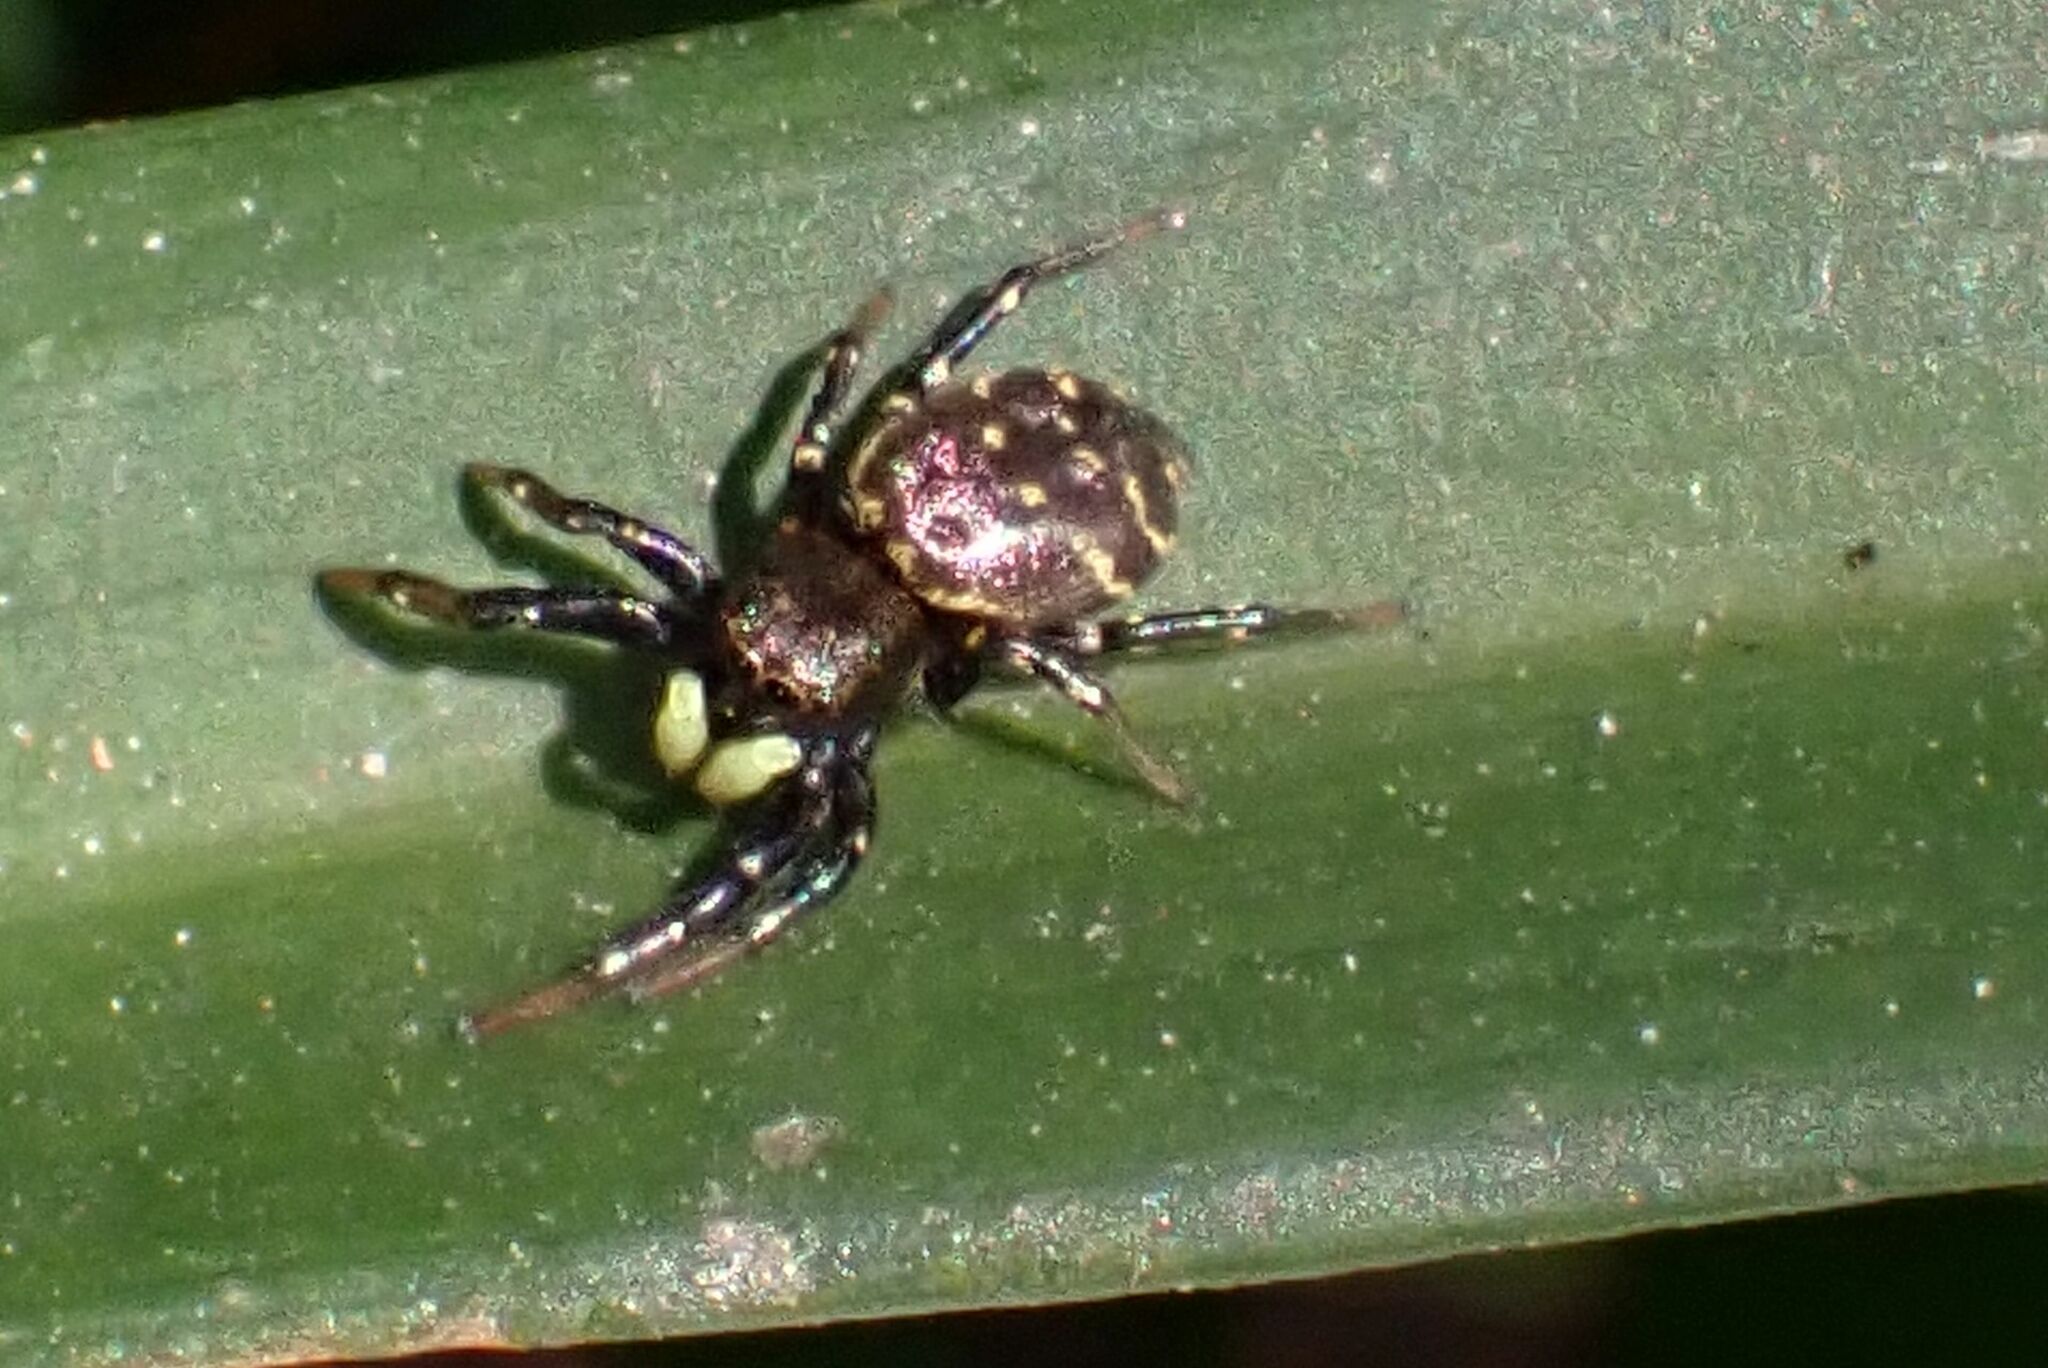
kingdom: Animalia
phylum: Arthropoda
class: Arachnida
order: Araneae
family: Salticidae
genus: Heliophanus
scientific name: Heliophanus
